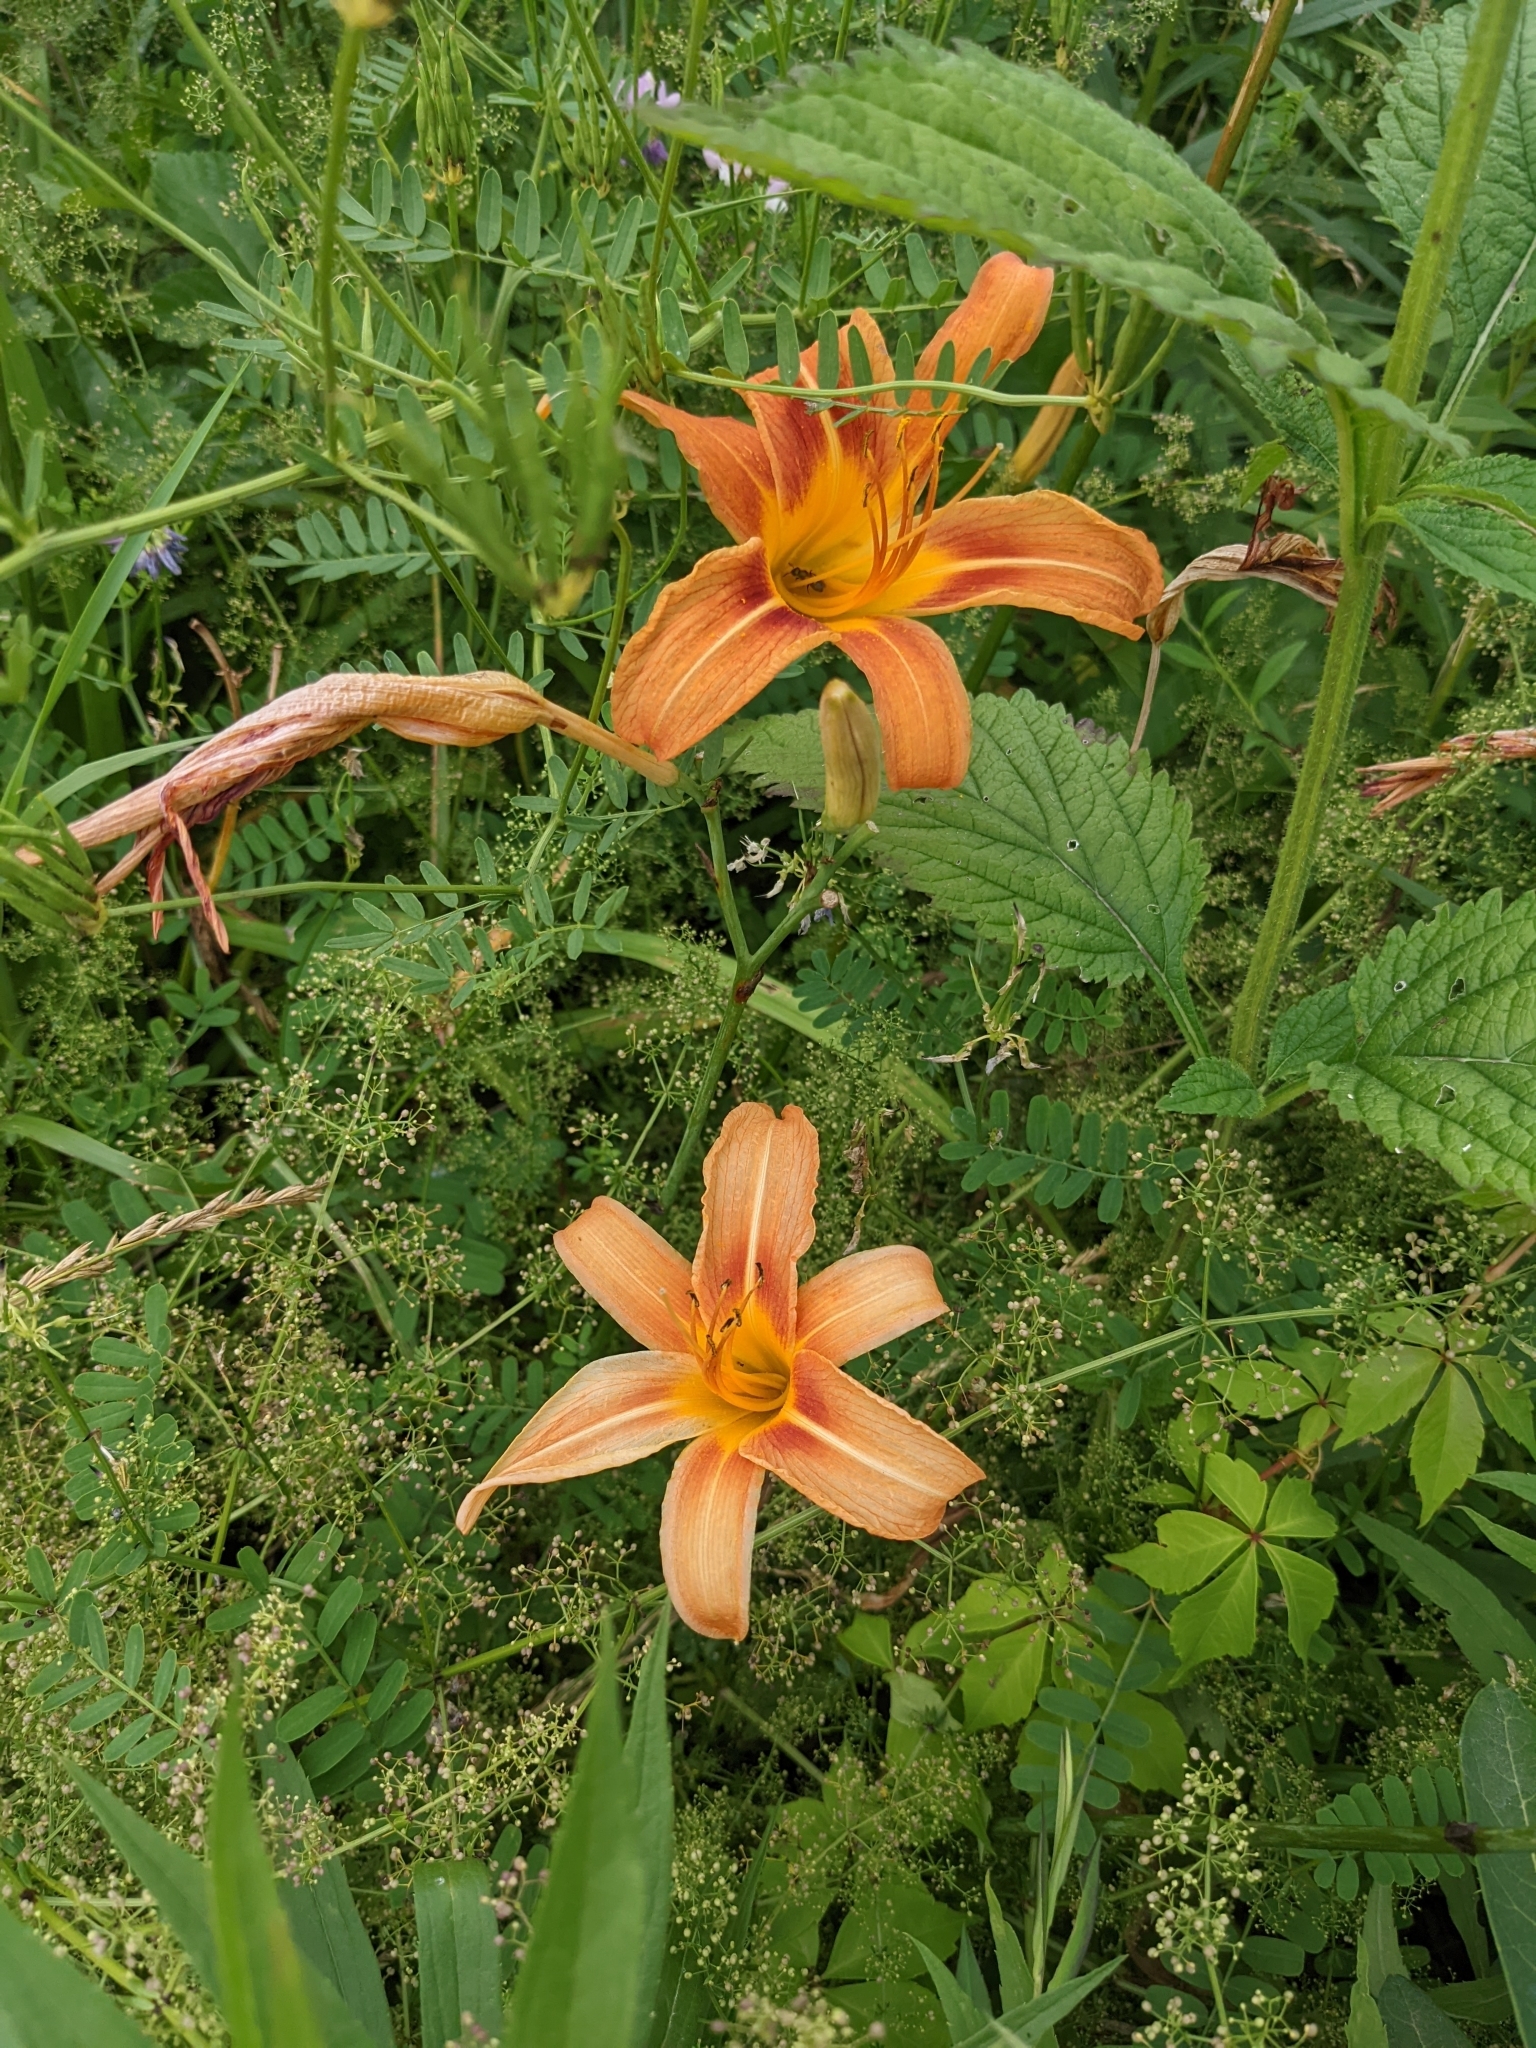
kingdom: Plantae
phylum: Tracheophyta
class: Liliopsida
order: Asparagales
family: Asphodelaceae
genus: Hemerocallis
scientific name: Hemerocallis fulva
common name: Orange day-lily
